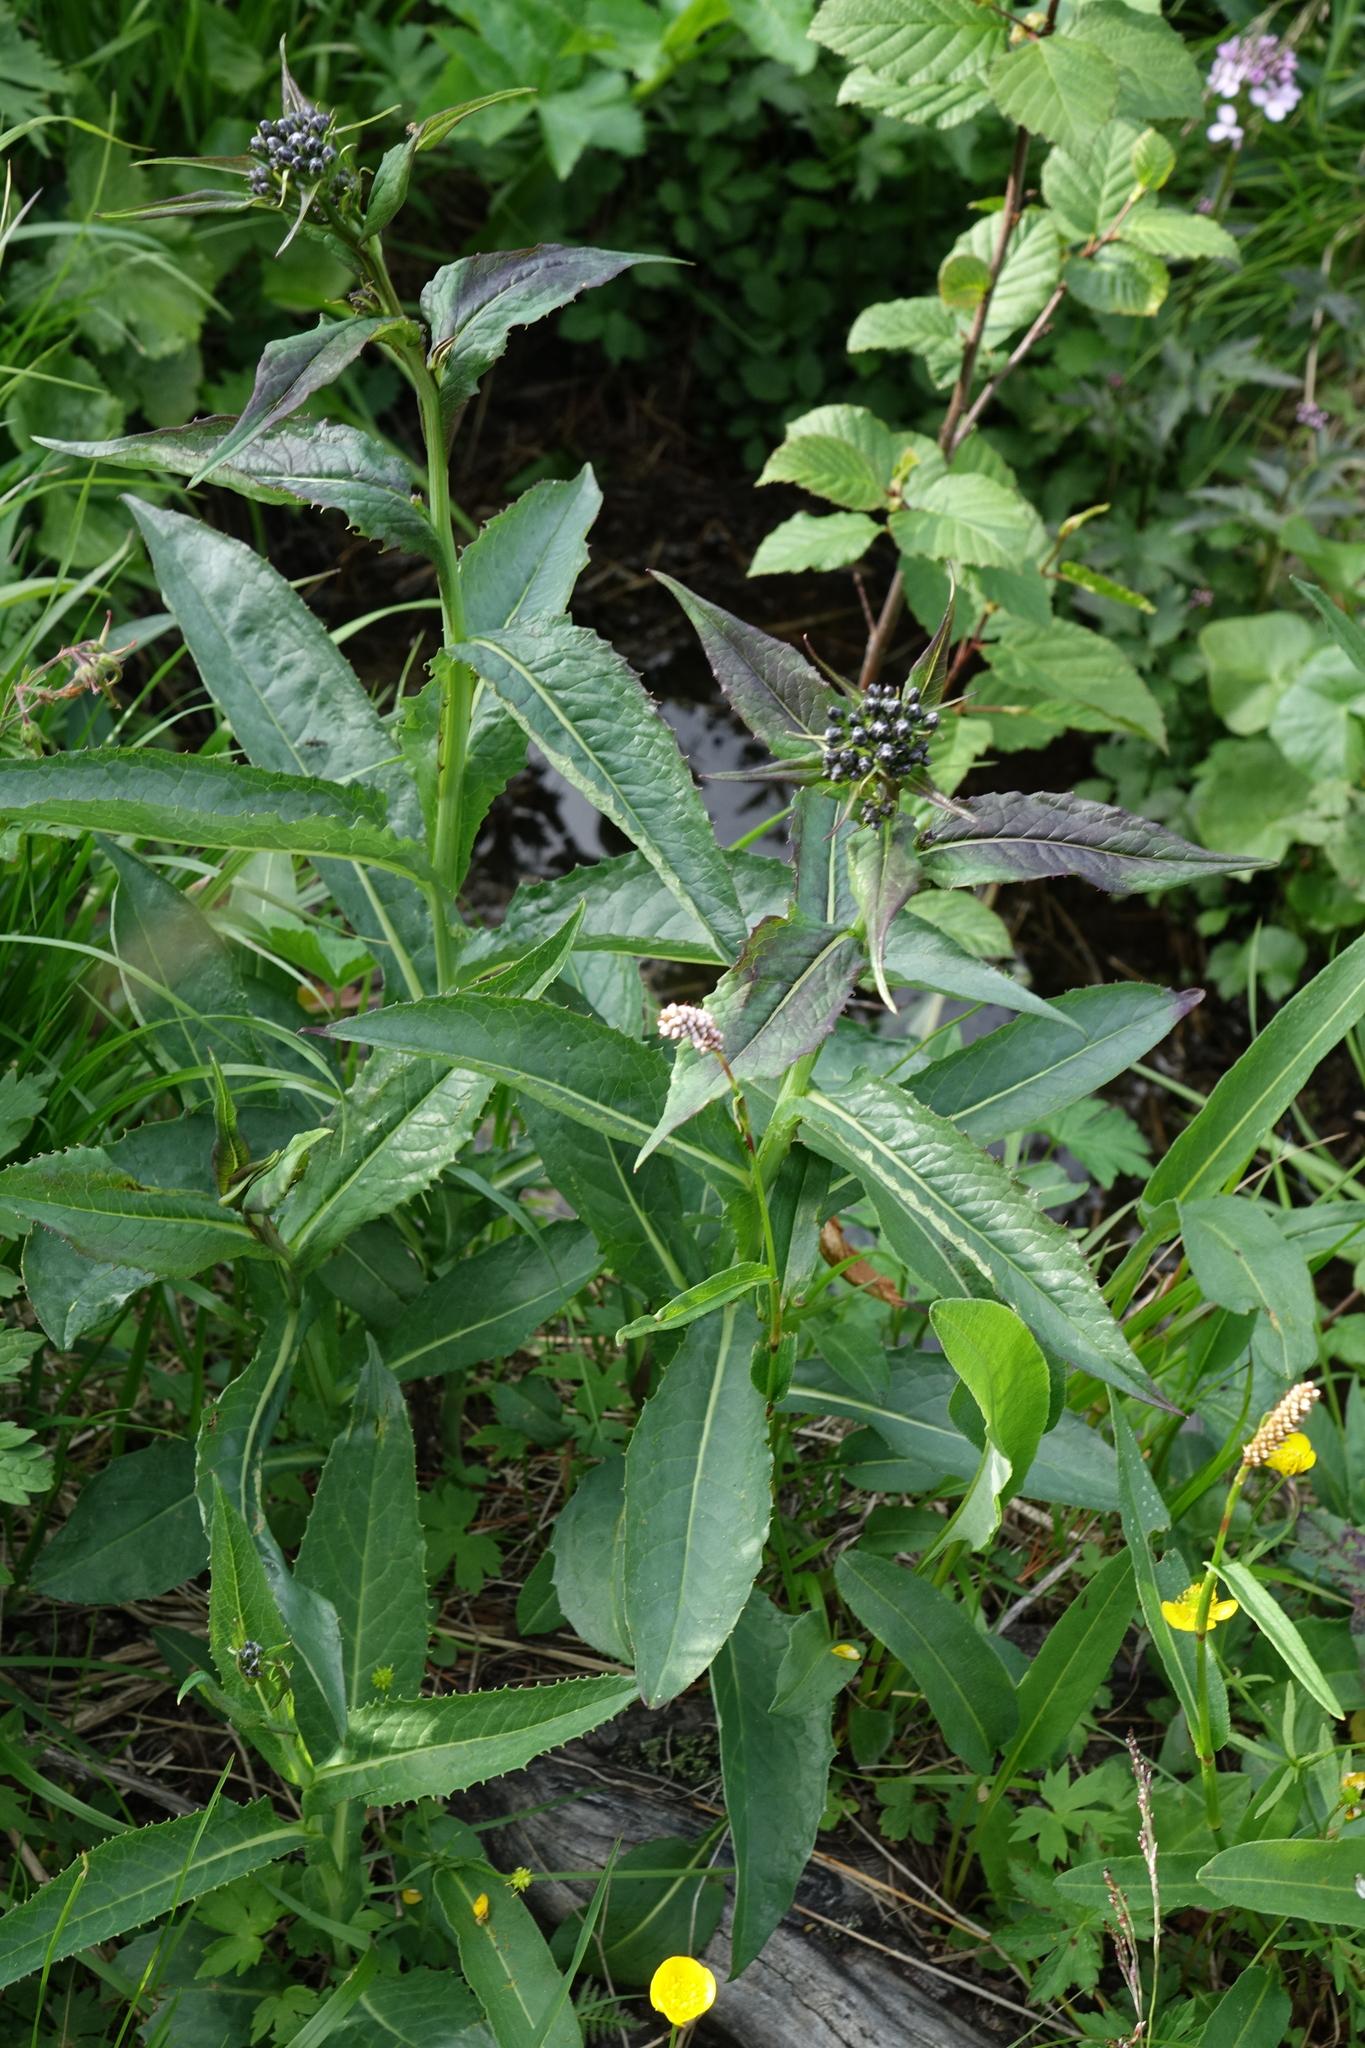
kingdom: Plantae
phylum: Tracheophyta
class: Magnoliopsida
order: Asterales
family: Asteraceae
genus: Saussurea
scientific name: Saussurea latifolia
